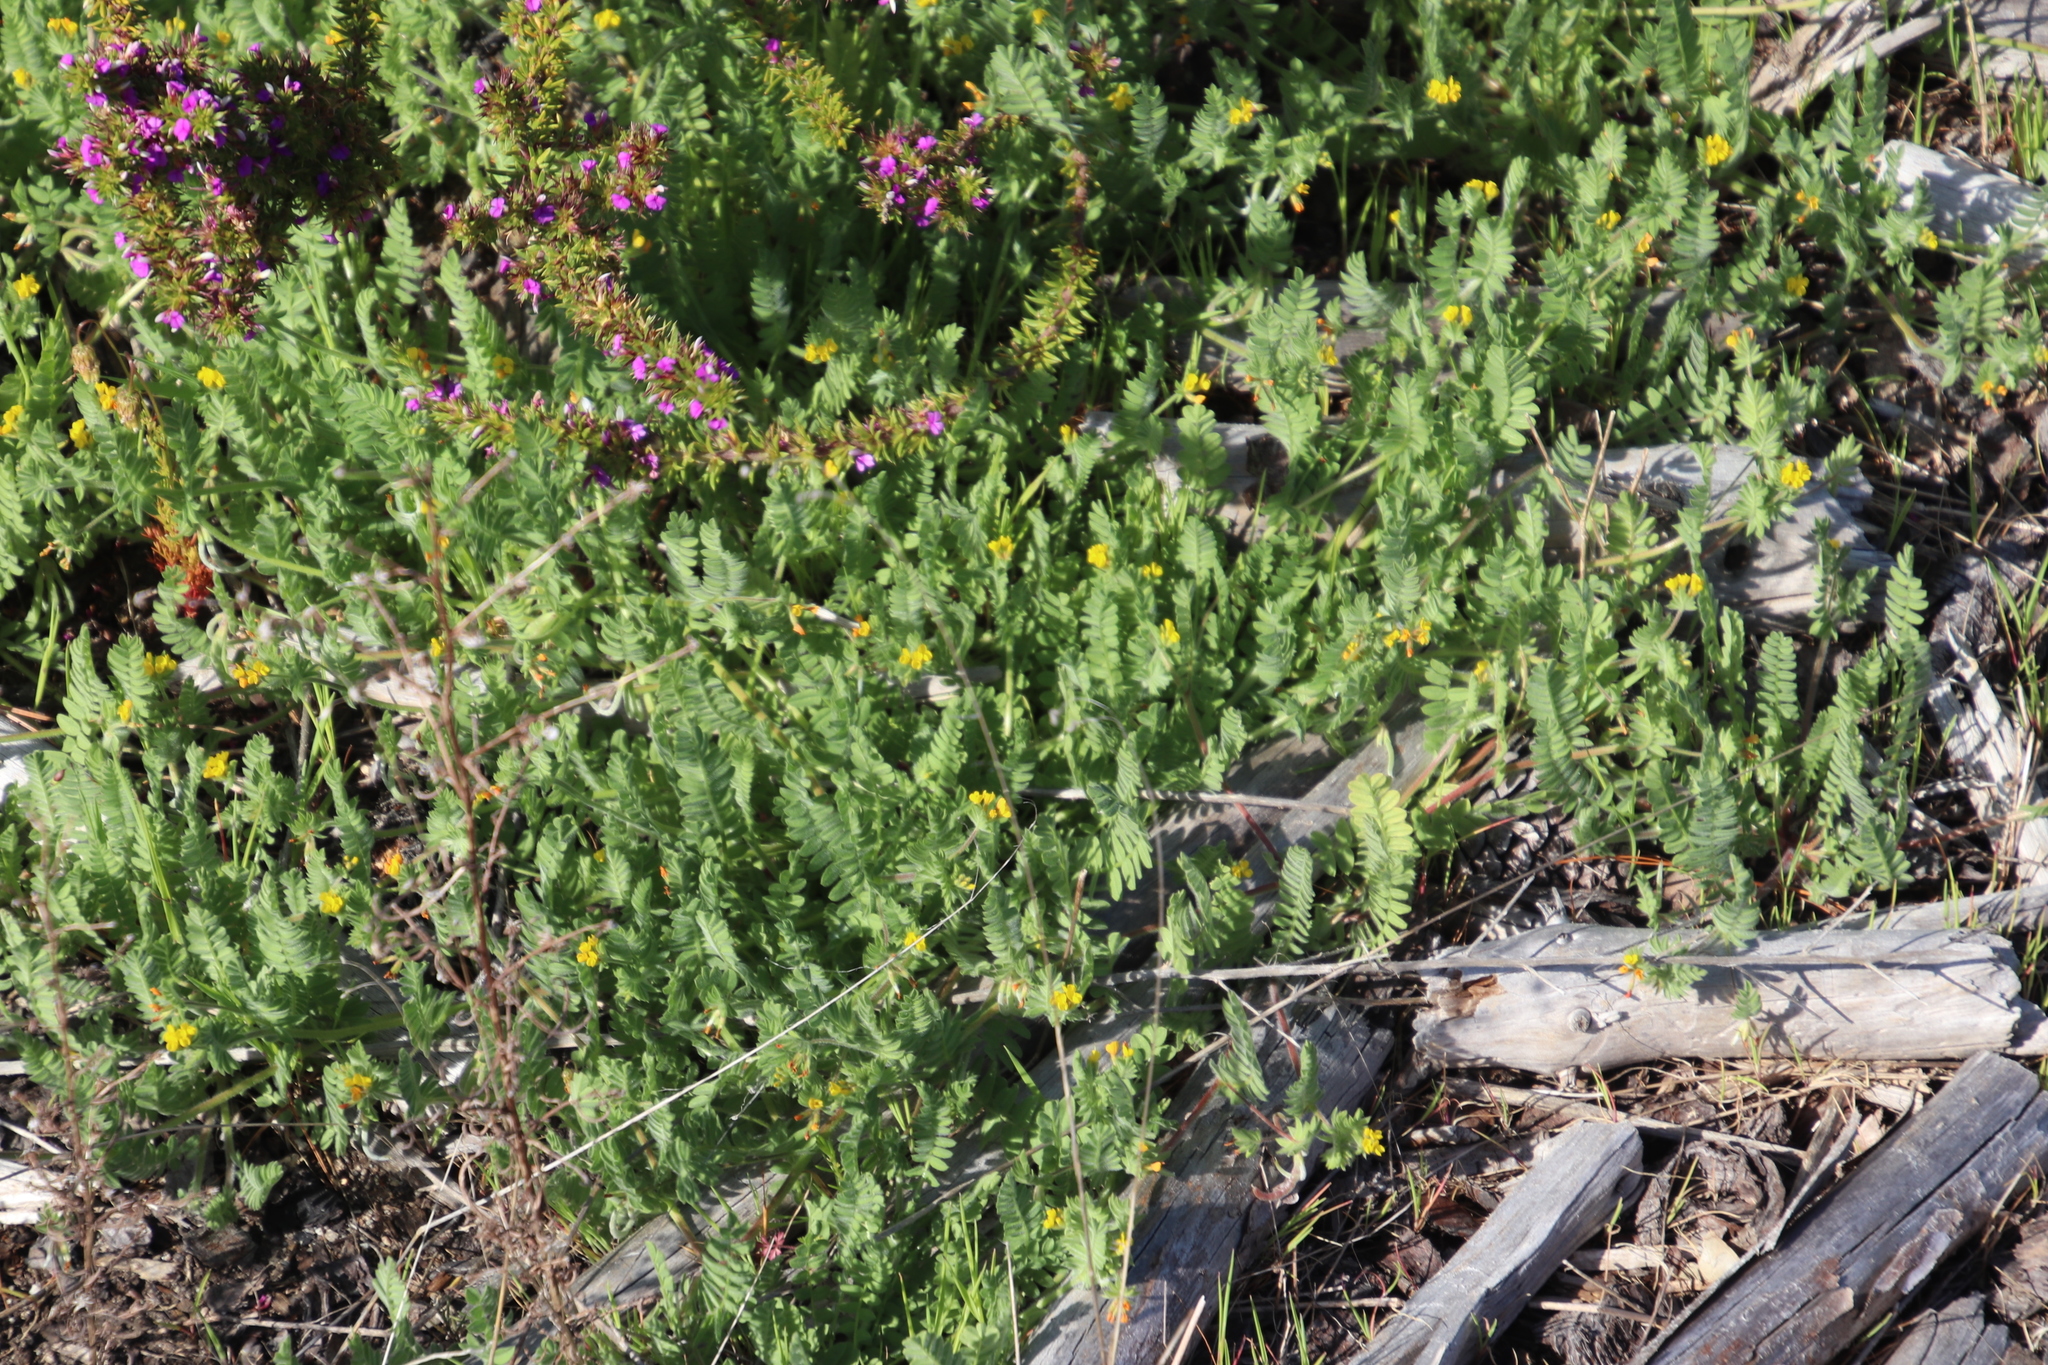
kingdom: Plantae
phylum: Tracheophyta
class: Magnoliopsida
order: Fabales
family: Fabaceae
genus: Ornithopus
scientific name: Ornithopus compressus
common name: Yellow serradella
